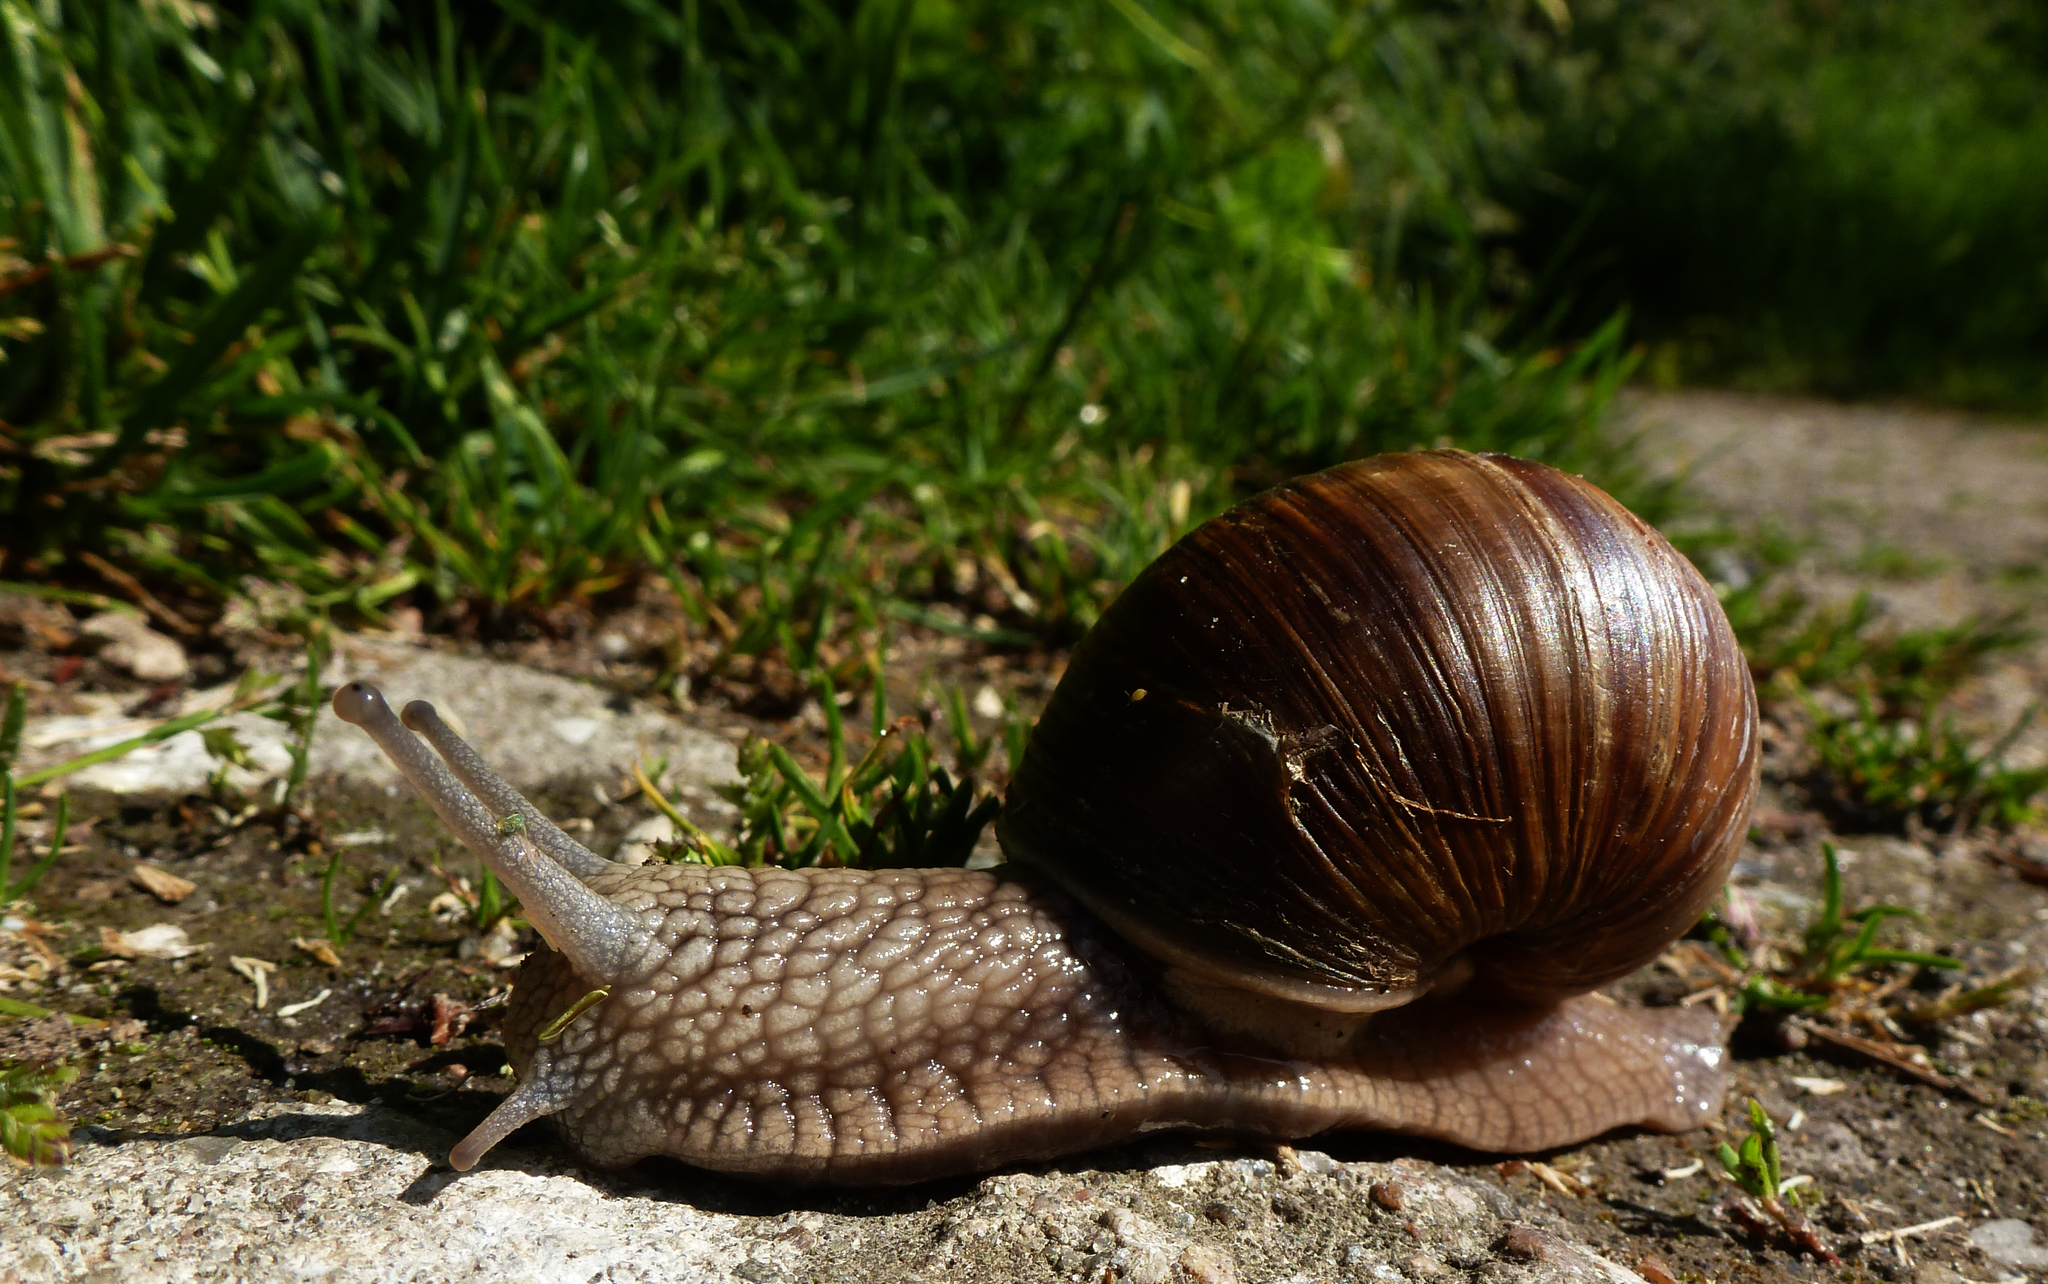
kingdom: Animalia
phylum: Mollusca
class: Gastropoda
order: Stylommatophora
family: Helicidae
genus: Helix
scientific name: Helix pomatia
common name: Roman snail
